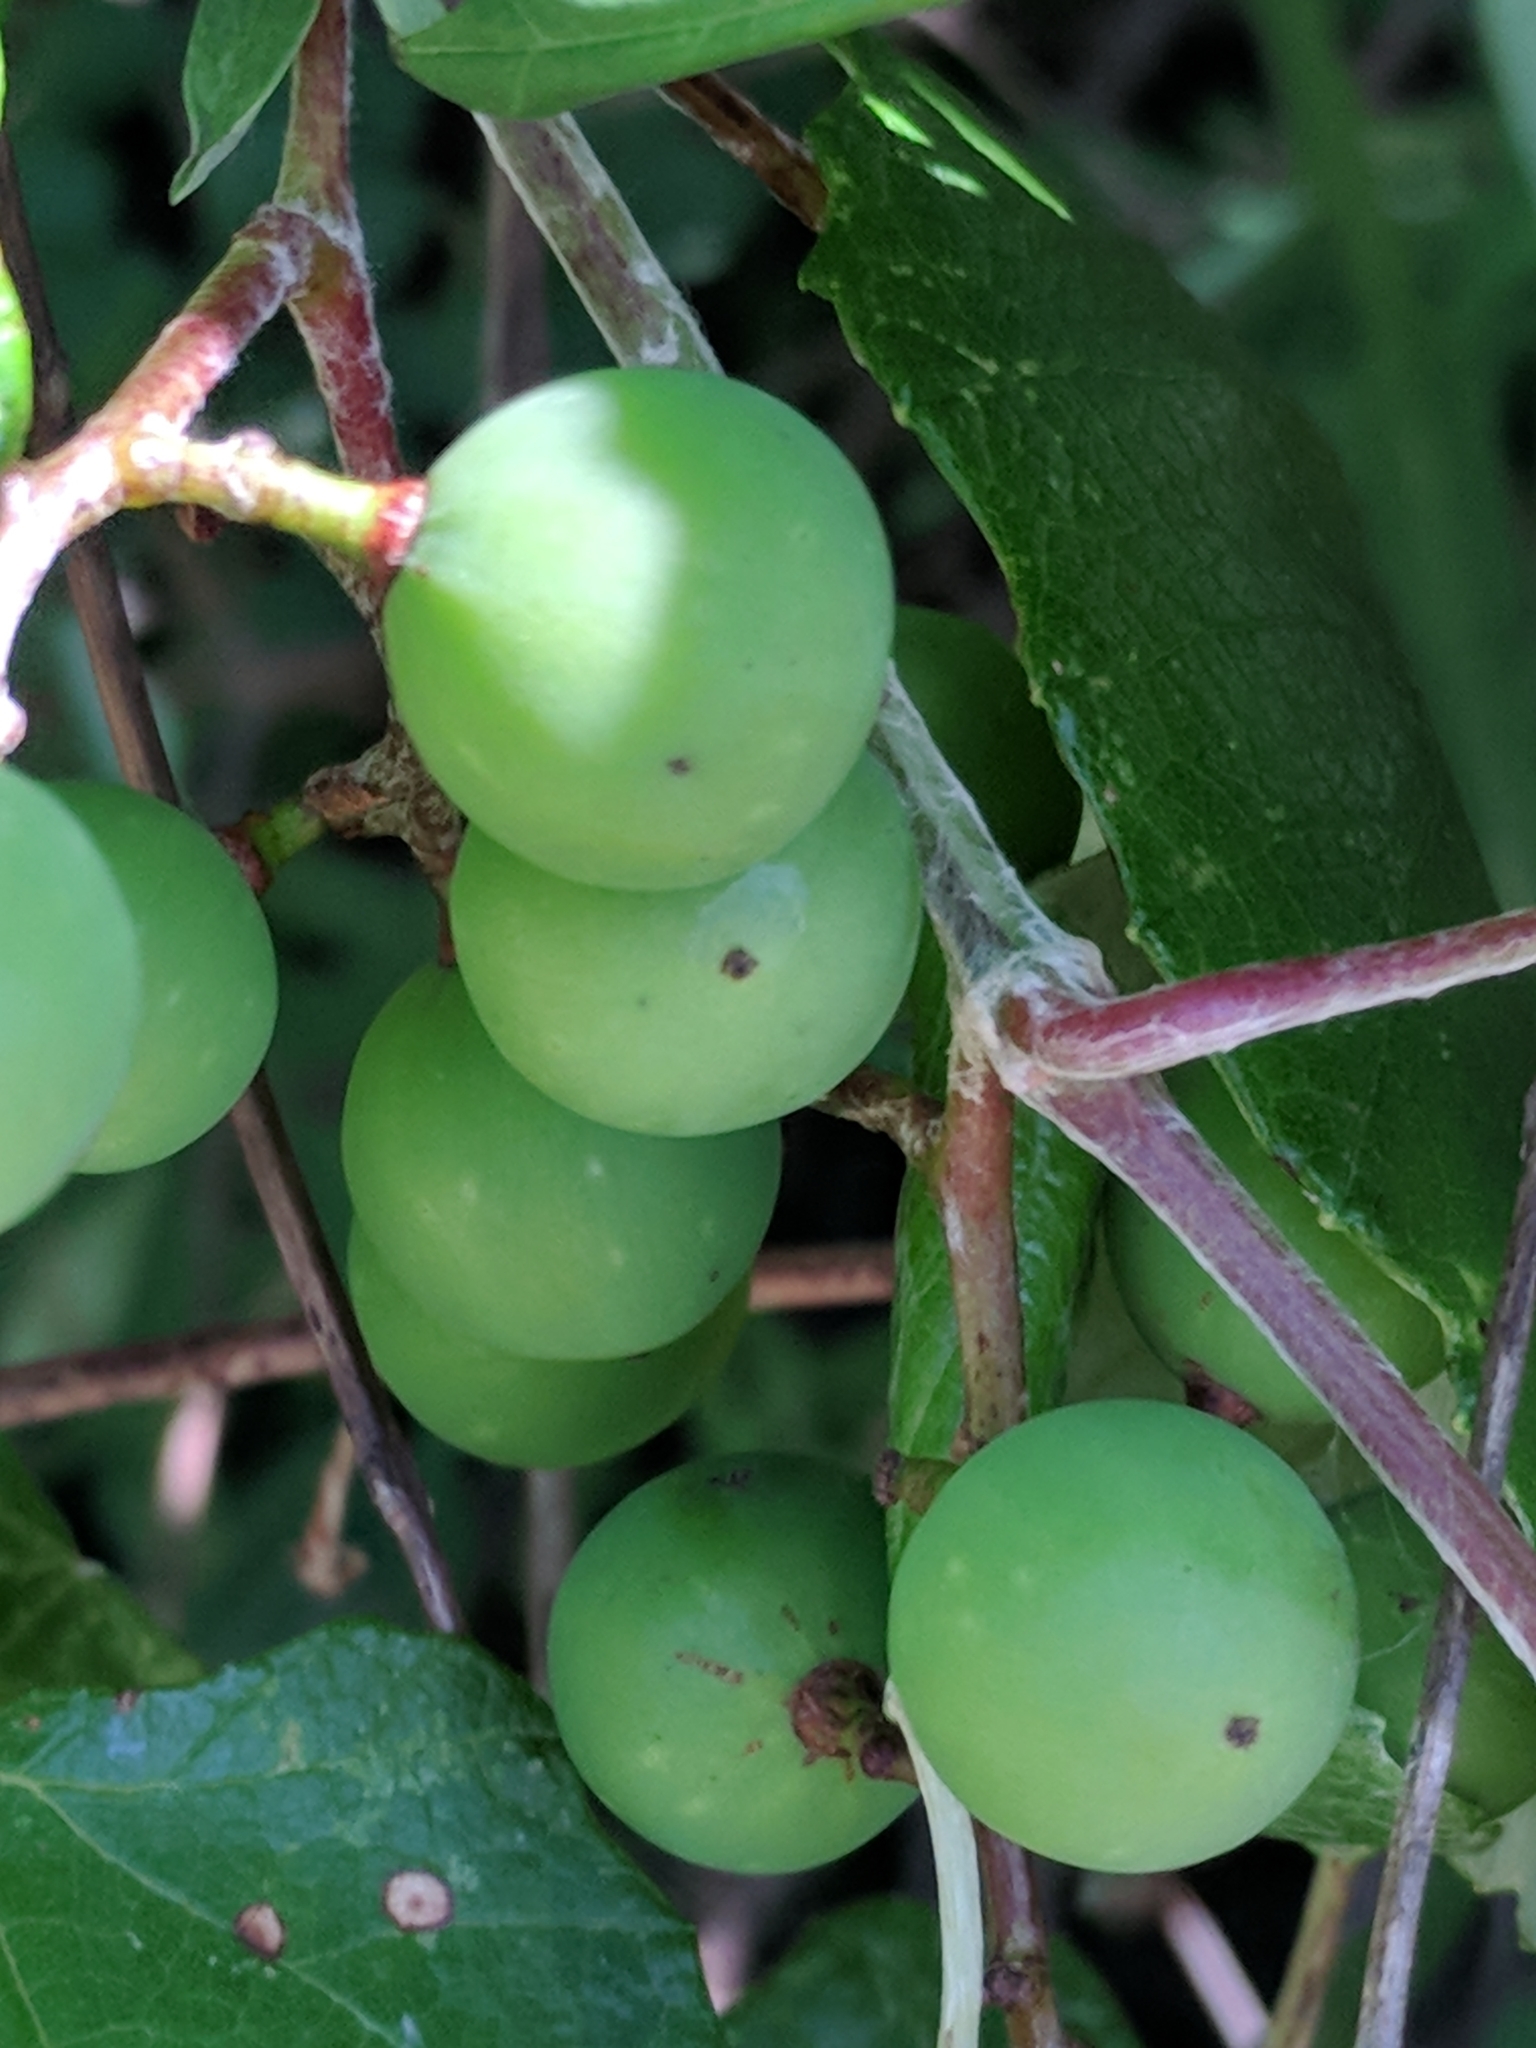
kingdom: Plantae
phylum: Tracheophyta
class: Magnoliopsida
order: Vitales
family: Vitaceae
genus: Vitis
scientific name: Vitis mustangensis
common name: Mustang grape
